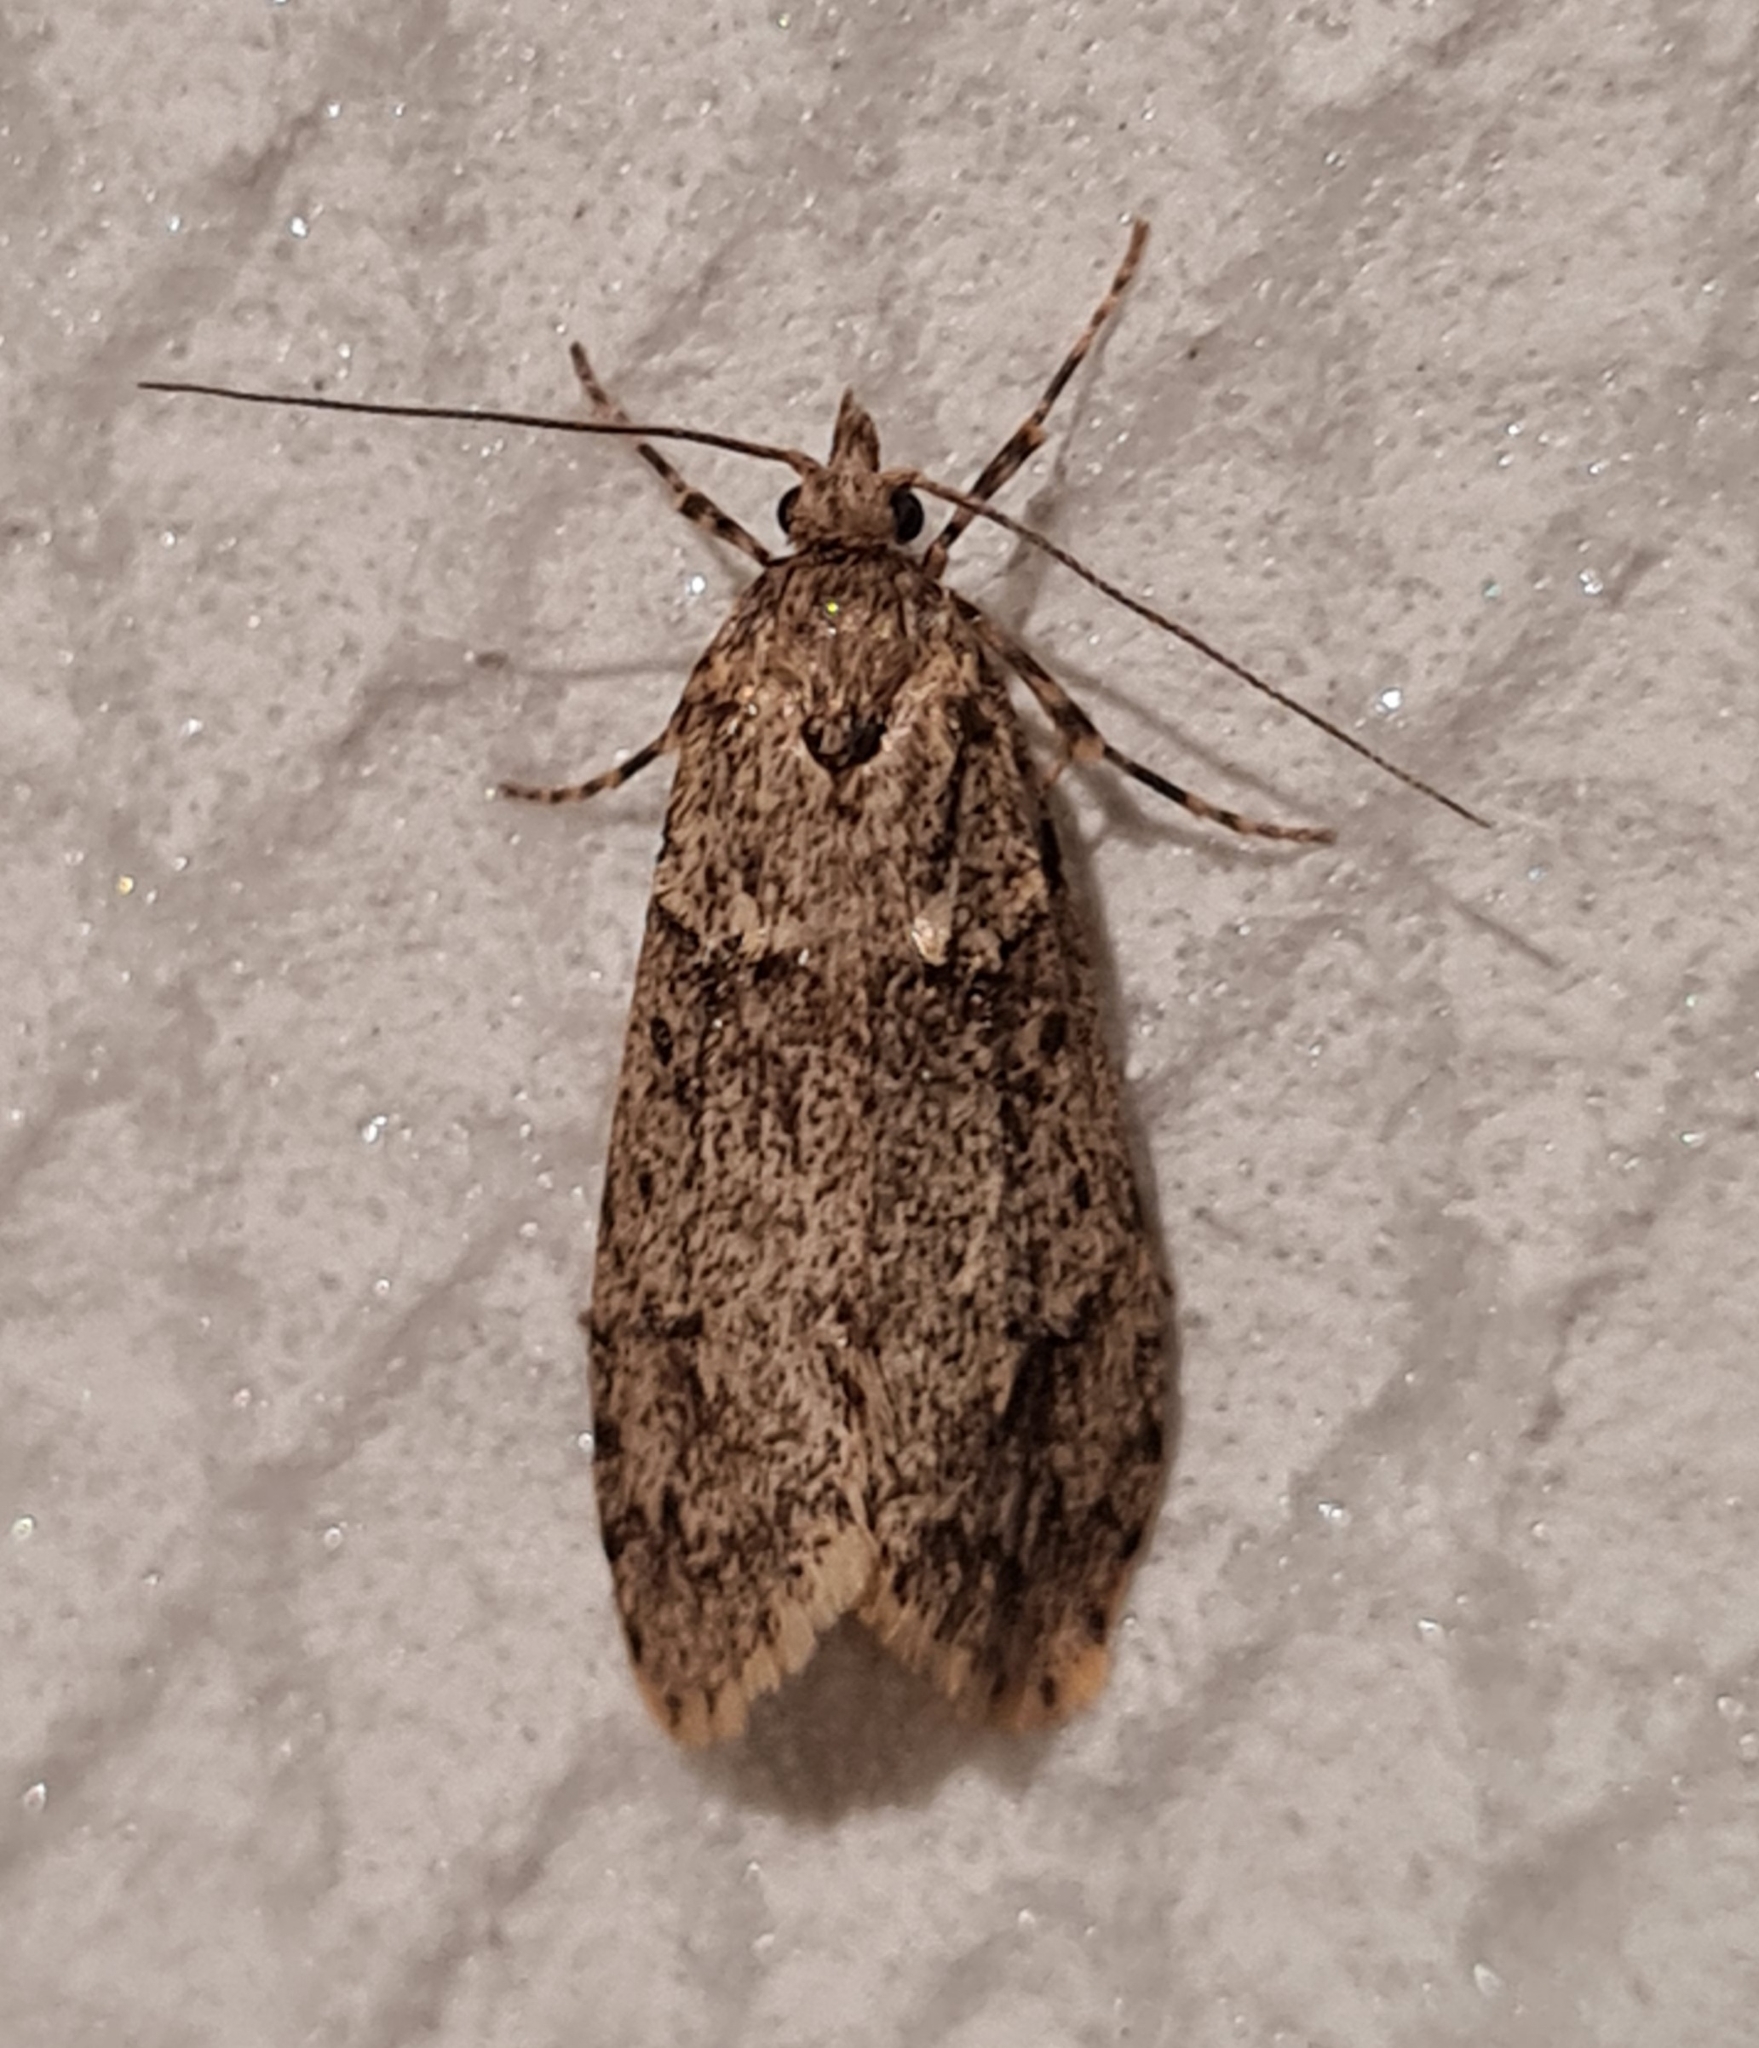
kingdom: Animalia
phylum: Arthropoda
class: Insecta
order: Lepidoptera
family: Lypusidae
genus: Diurnea
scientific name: Diurnea fagella
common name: March tubic
